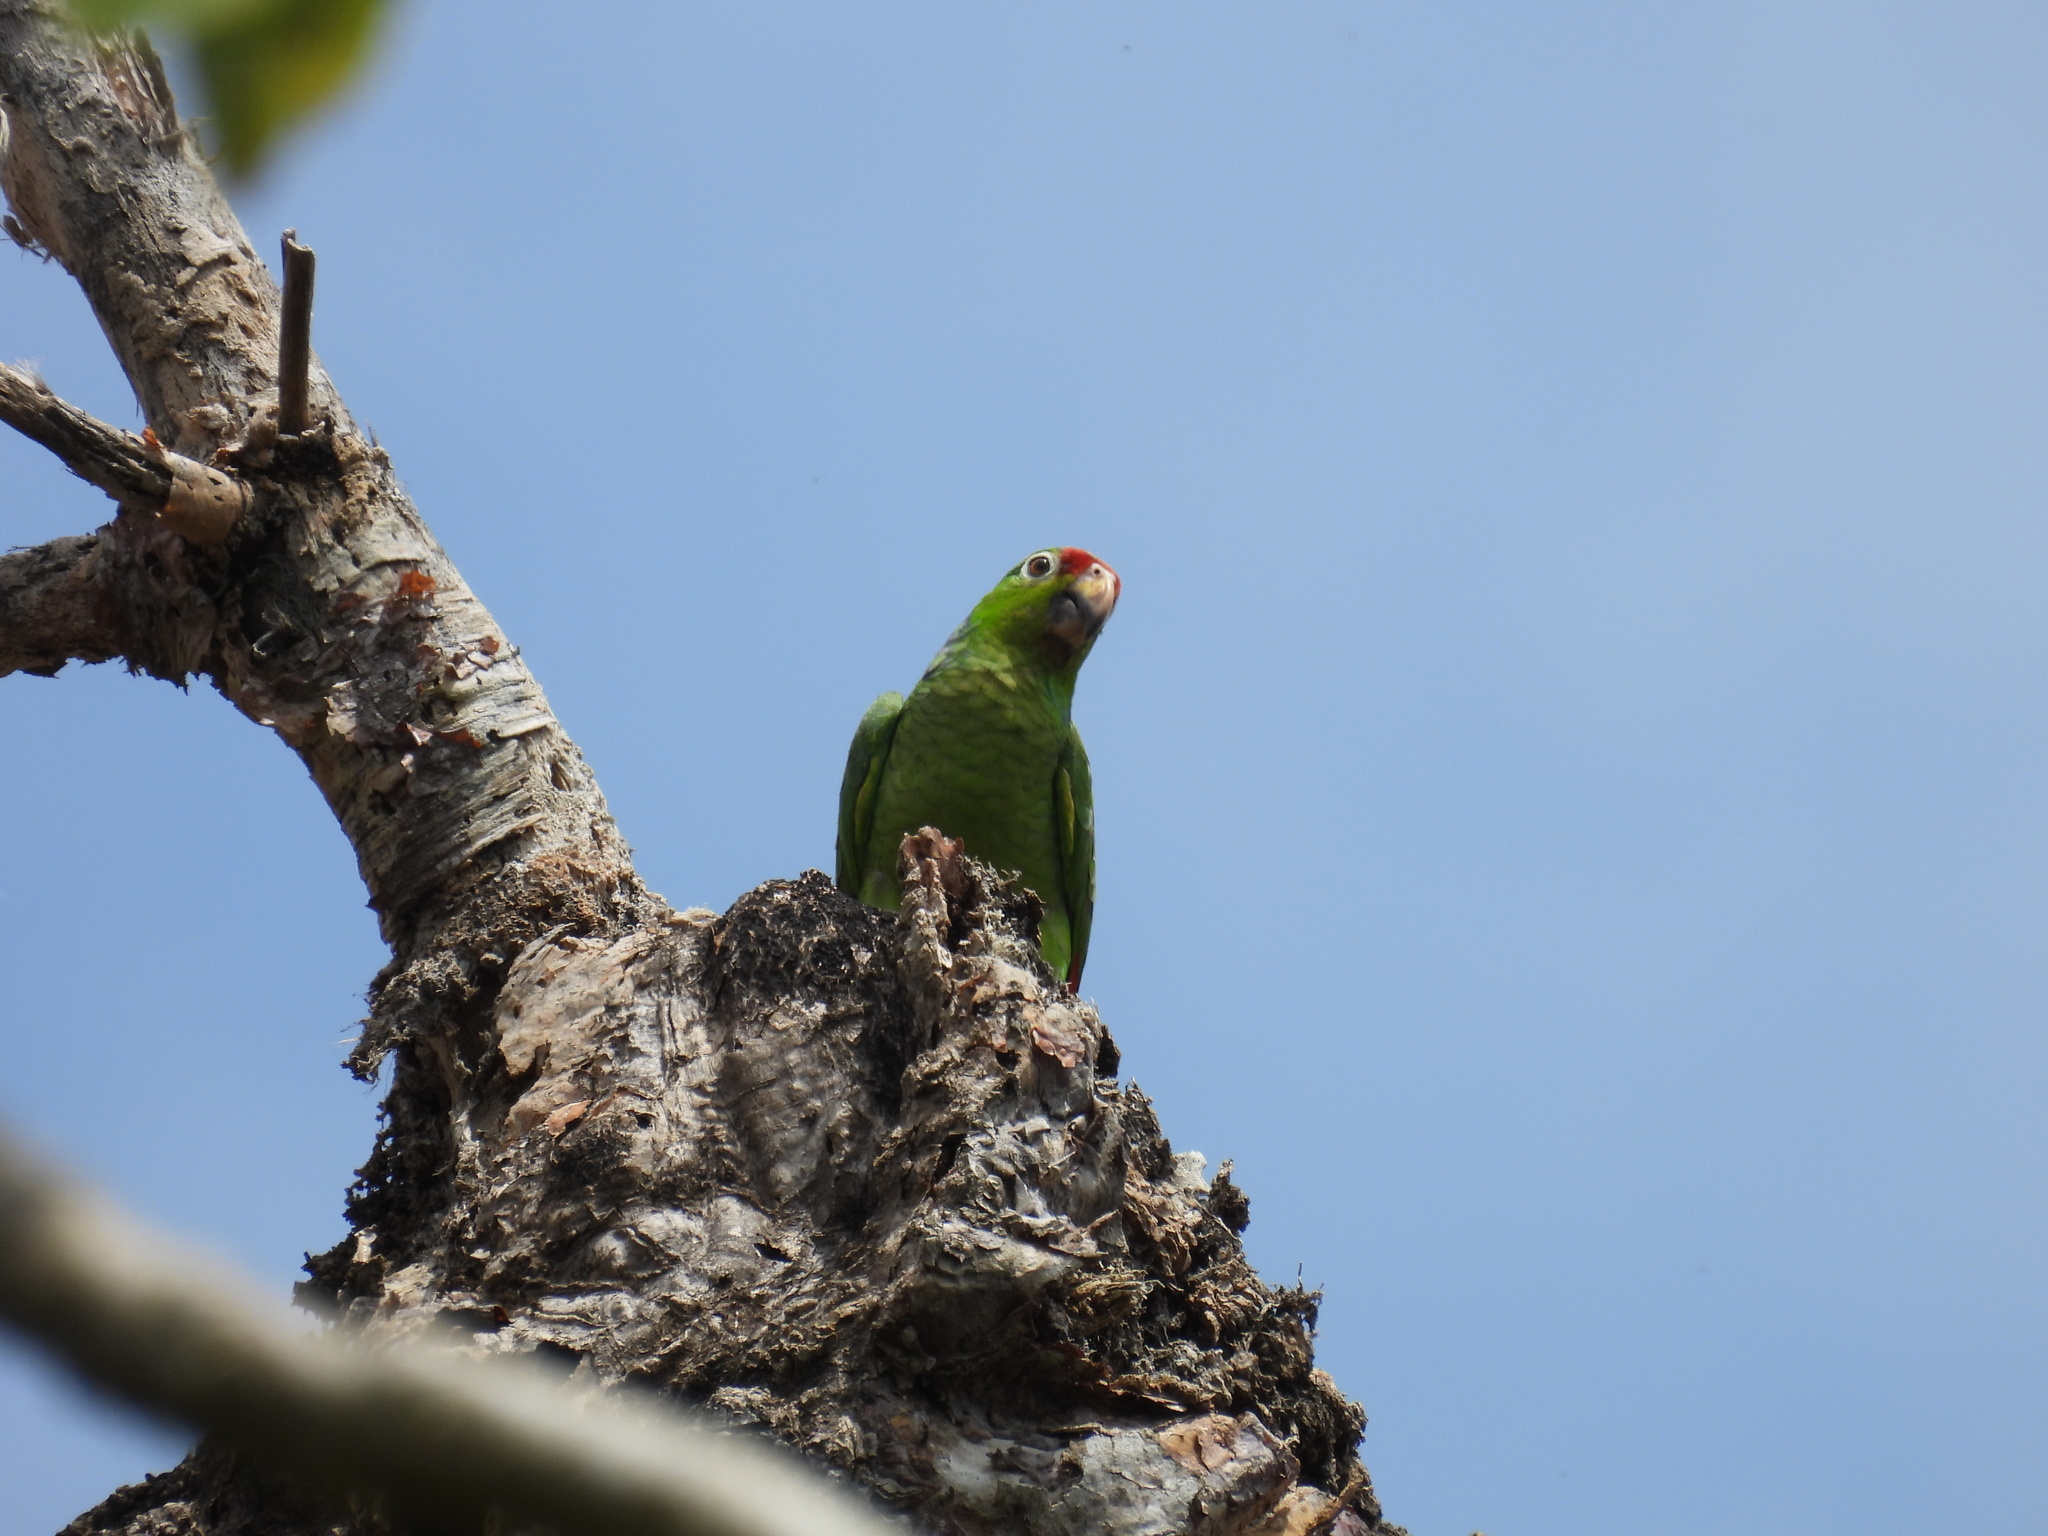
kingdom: Animalia
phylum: Chordata
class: Aves
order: Psittaciformes
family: Psittacidae
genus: Amazona
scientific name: Amazona autumnalis
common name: Red-lored amazon
